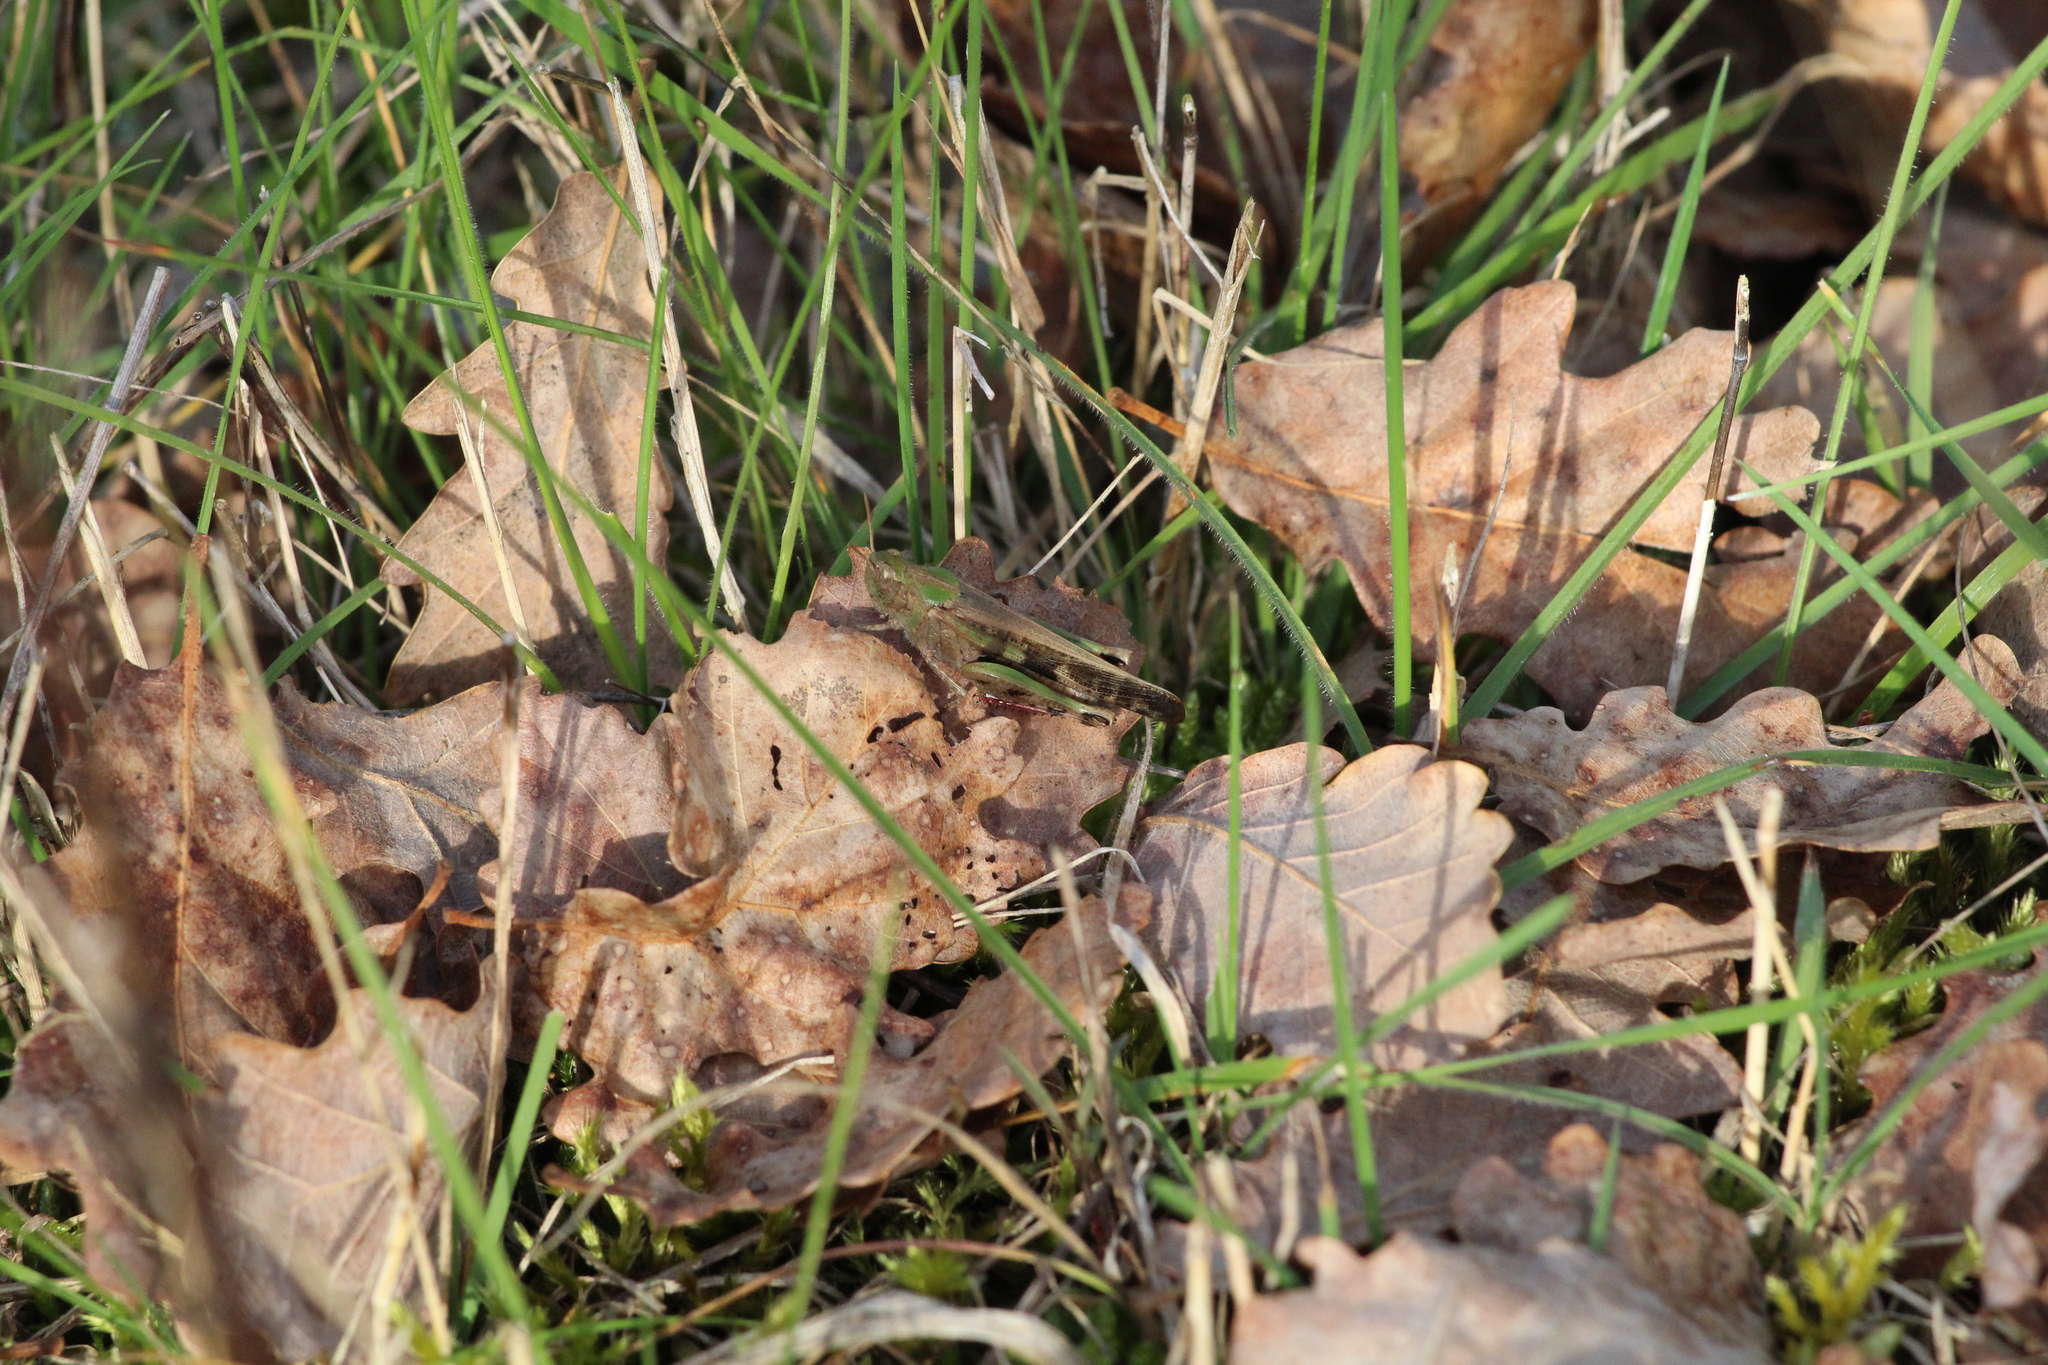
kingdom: Animalia
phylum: Arthropoda
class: Insecta
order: Orthoptera
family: Acrididae
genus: Aiolopus
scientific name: Aiolopus strepens
